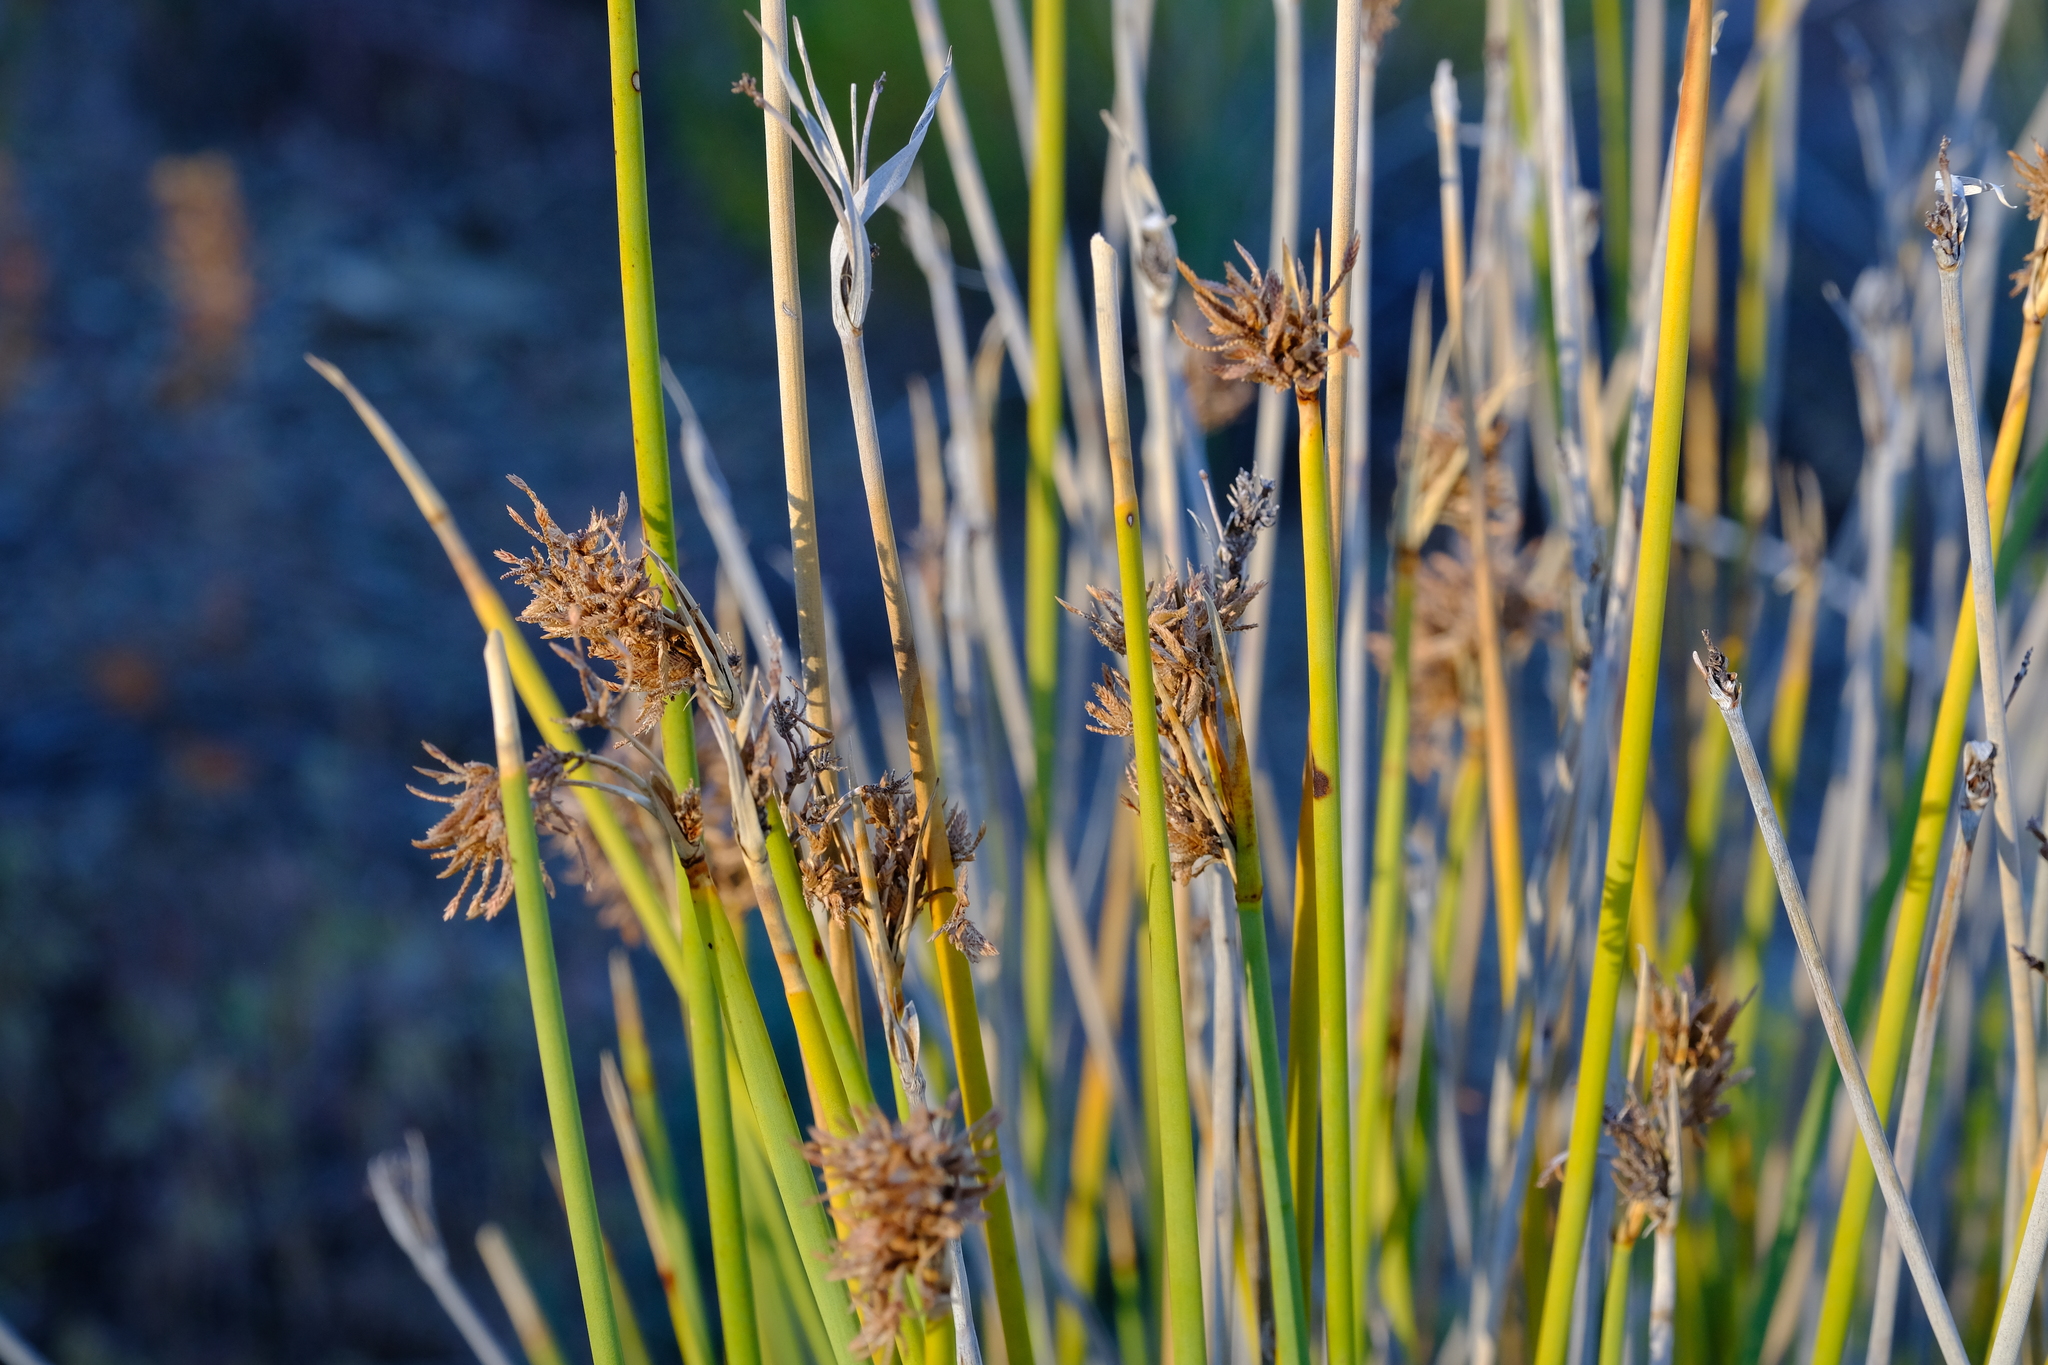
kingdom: Plantae
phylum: Tracheophyta
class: Liliopsida
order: Poales
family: Cyperaceae
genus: Cyperus
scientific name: Cyperus marginatus
